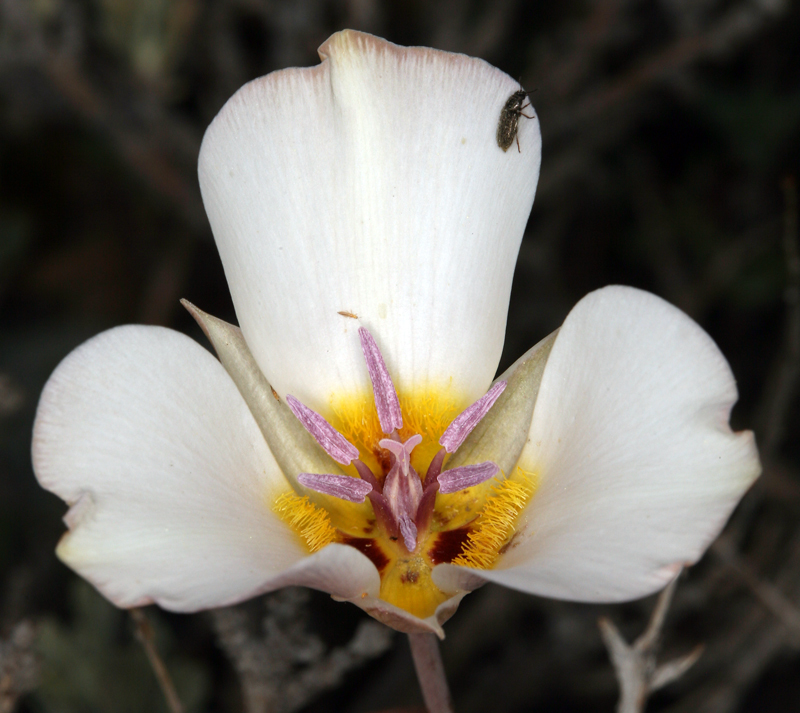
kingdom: Plantae
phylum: Tracheophyta
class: Liliopsida
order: Liliales
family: Liliaceae
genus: Calochortus
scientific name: Calochortus panamintensis
